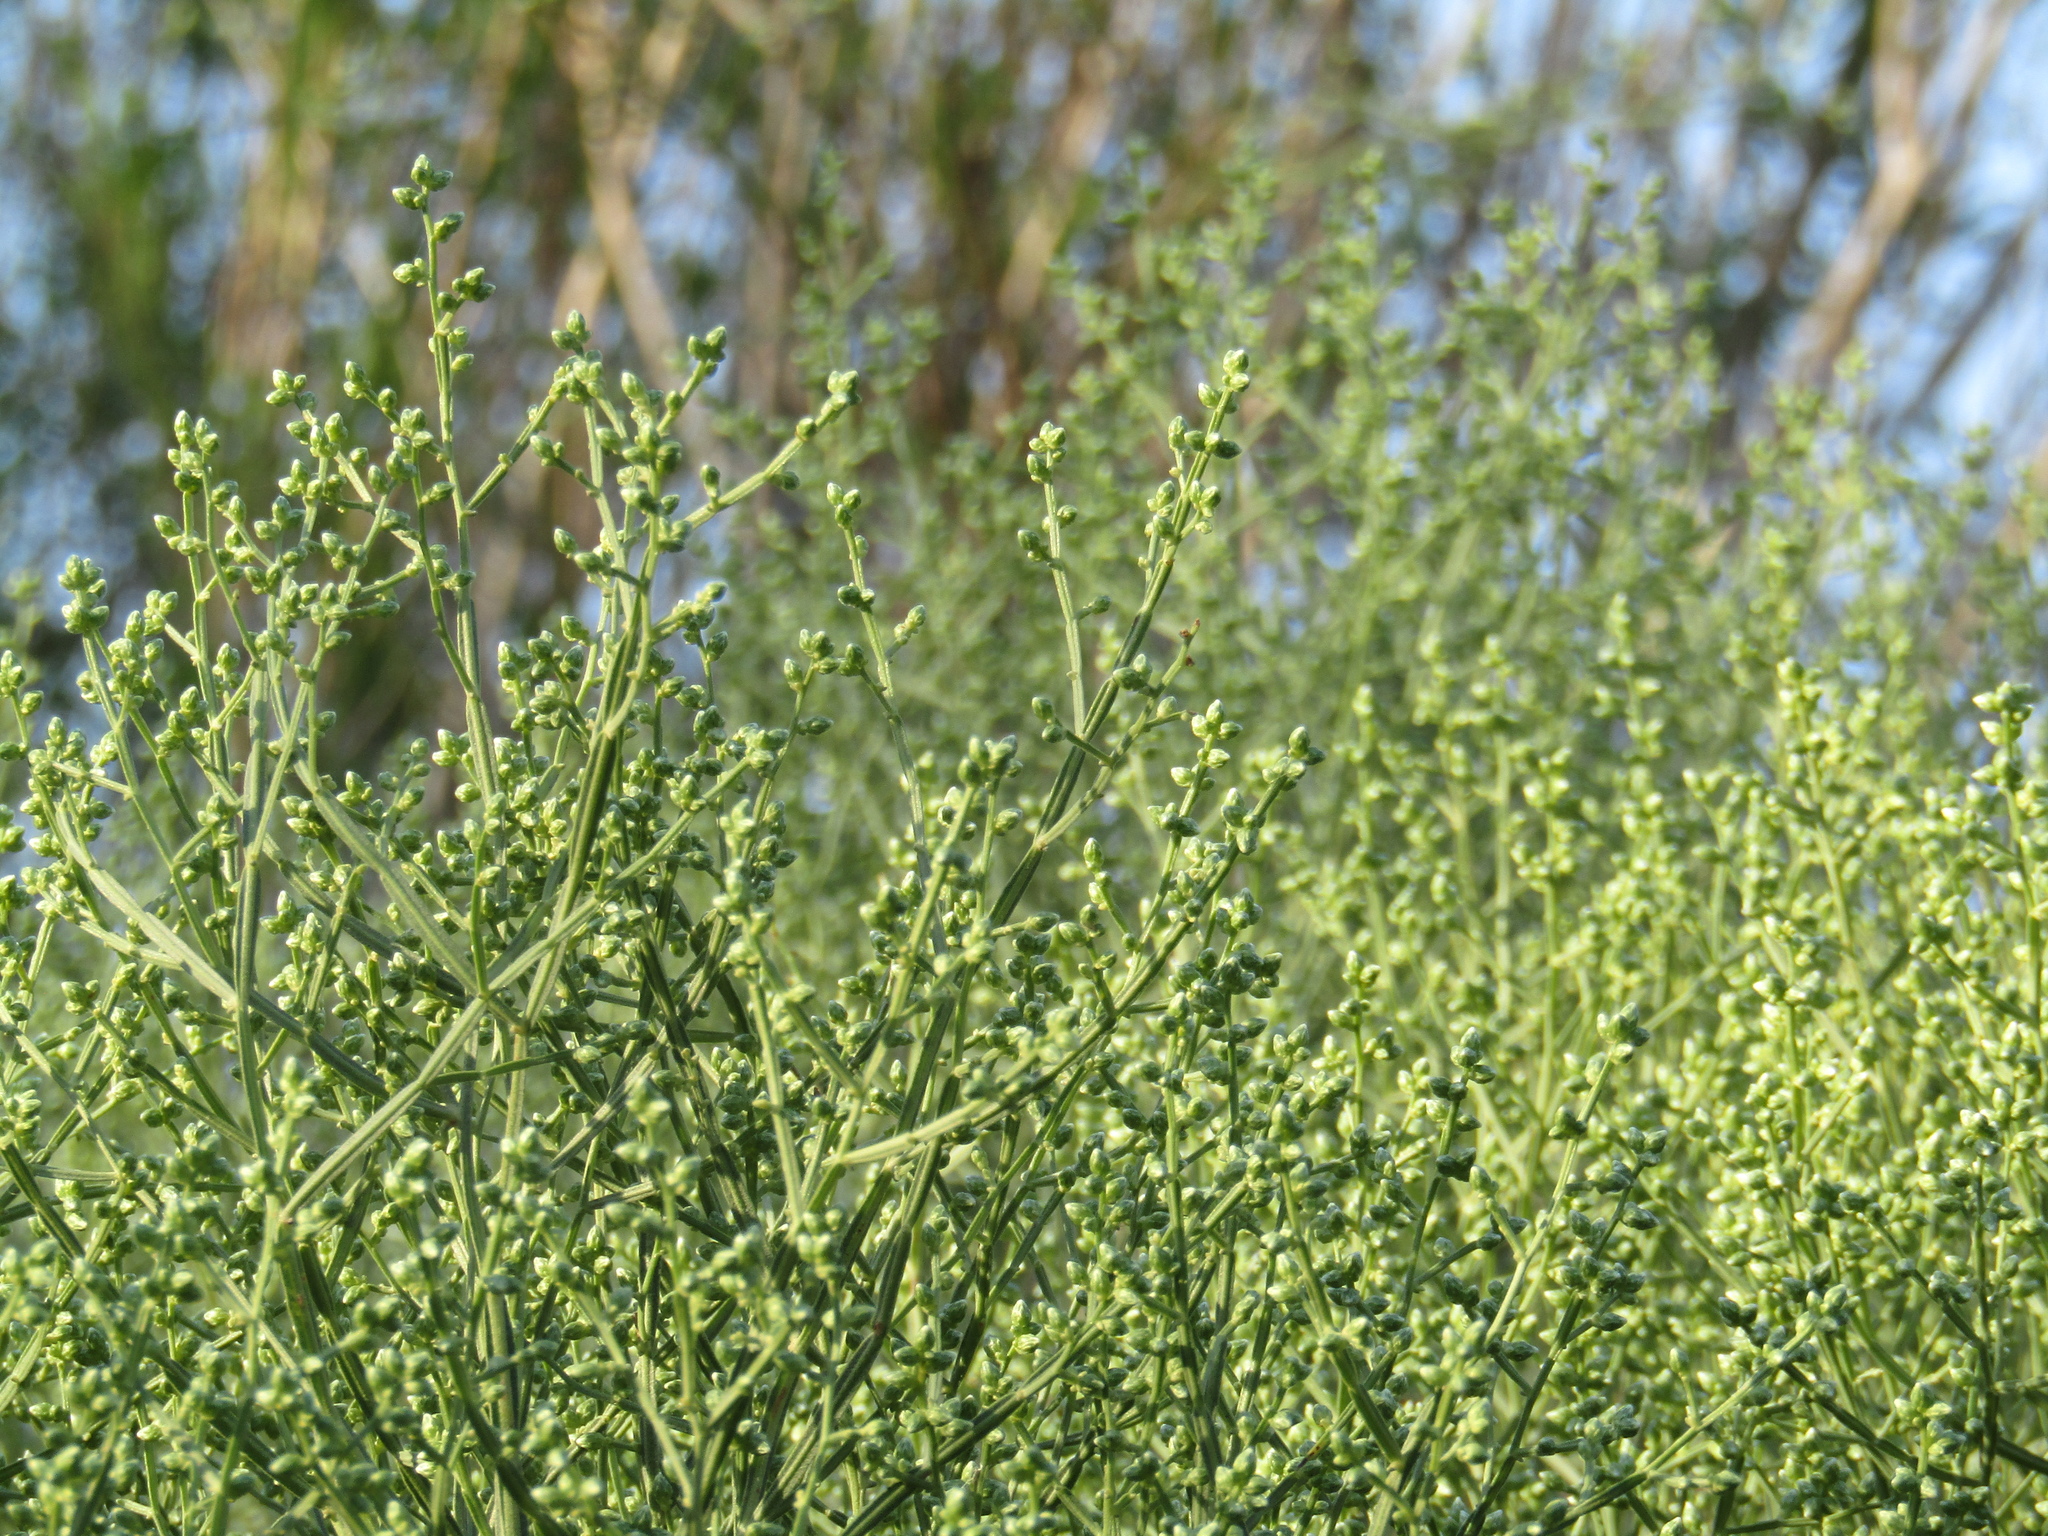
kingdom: Plantae
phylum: Tracheophyta
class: Magnoliopsida
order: Asterales
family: Asteraceae
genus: Baccharis
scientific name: Baccharis articulata
